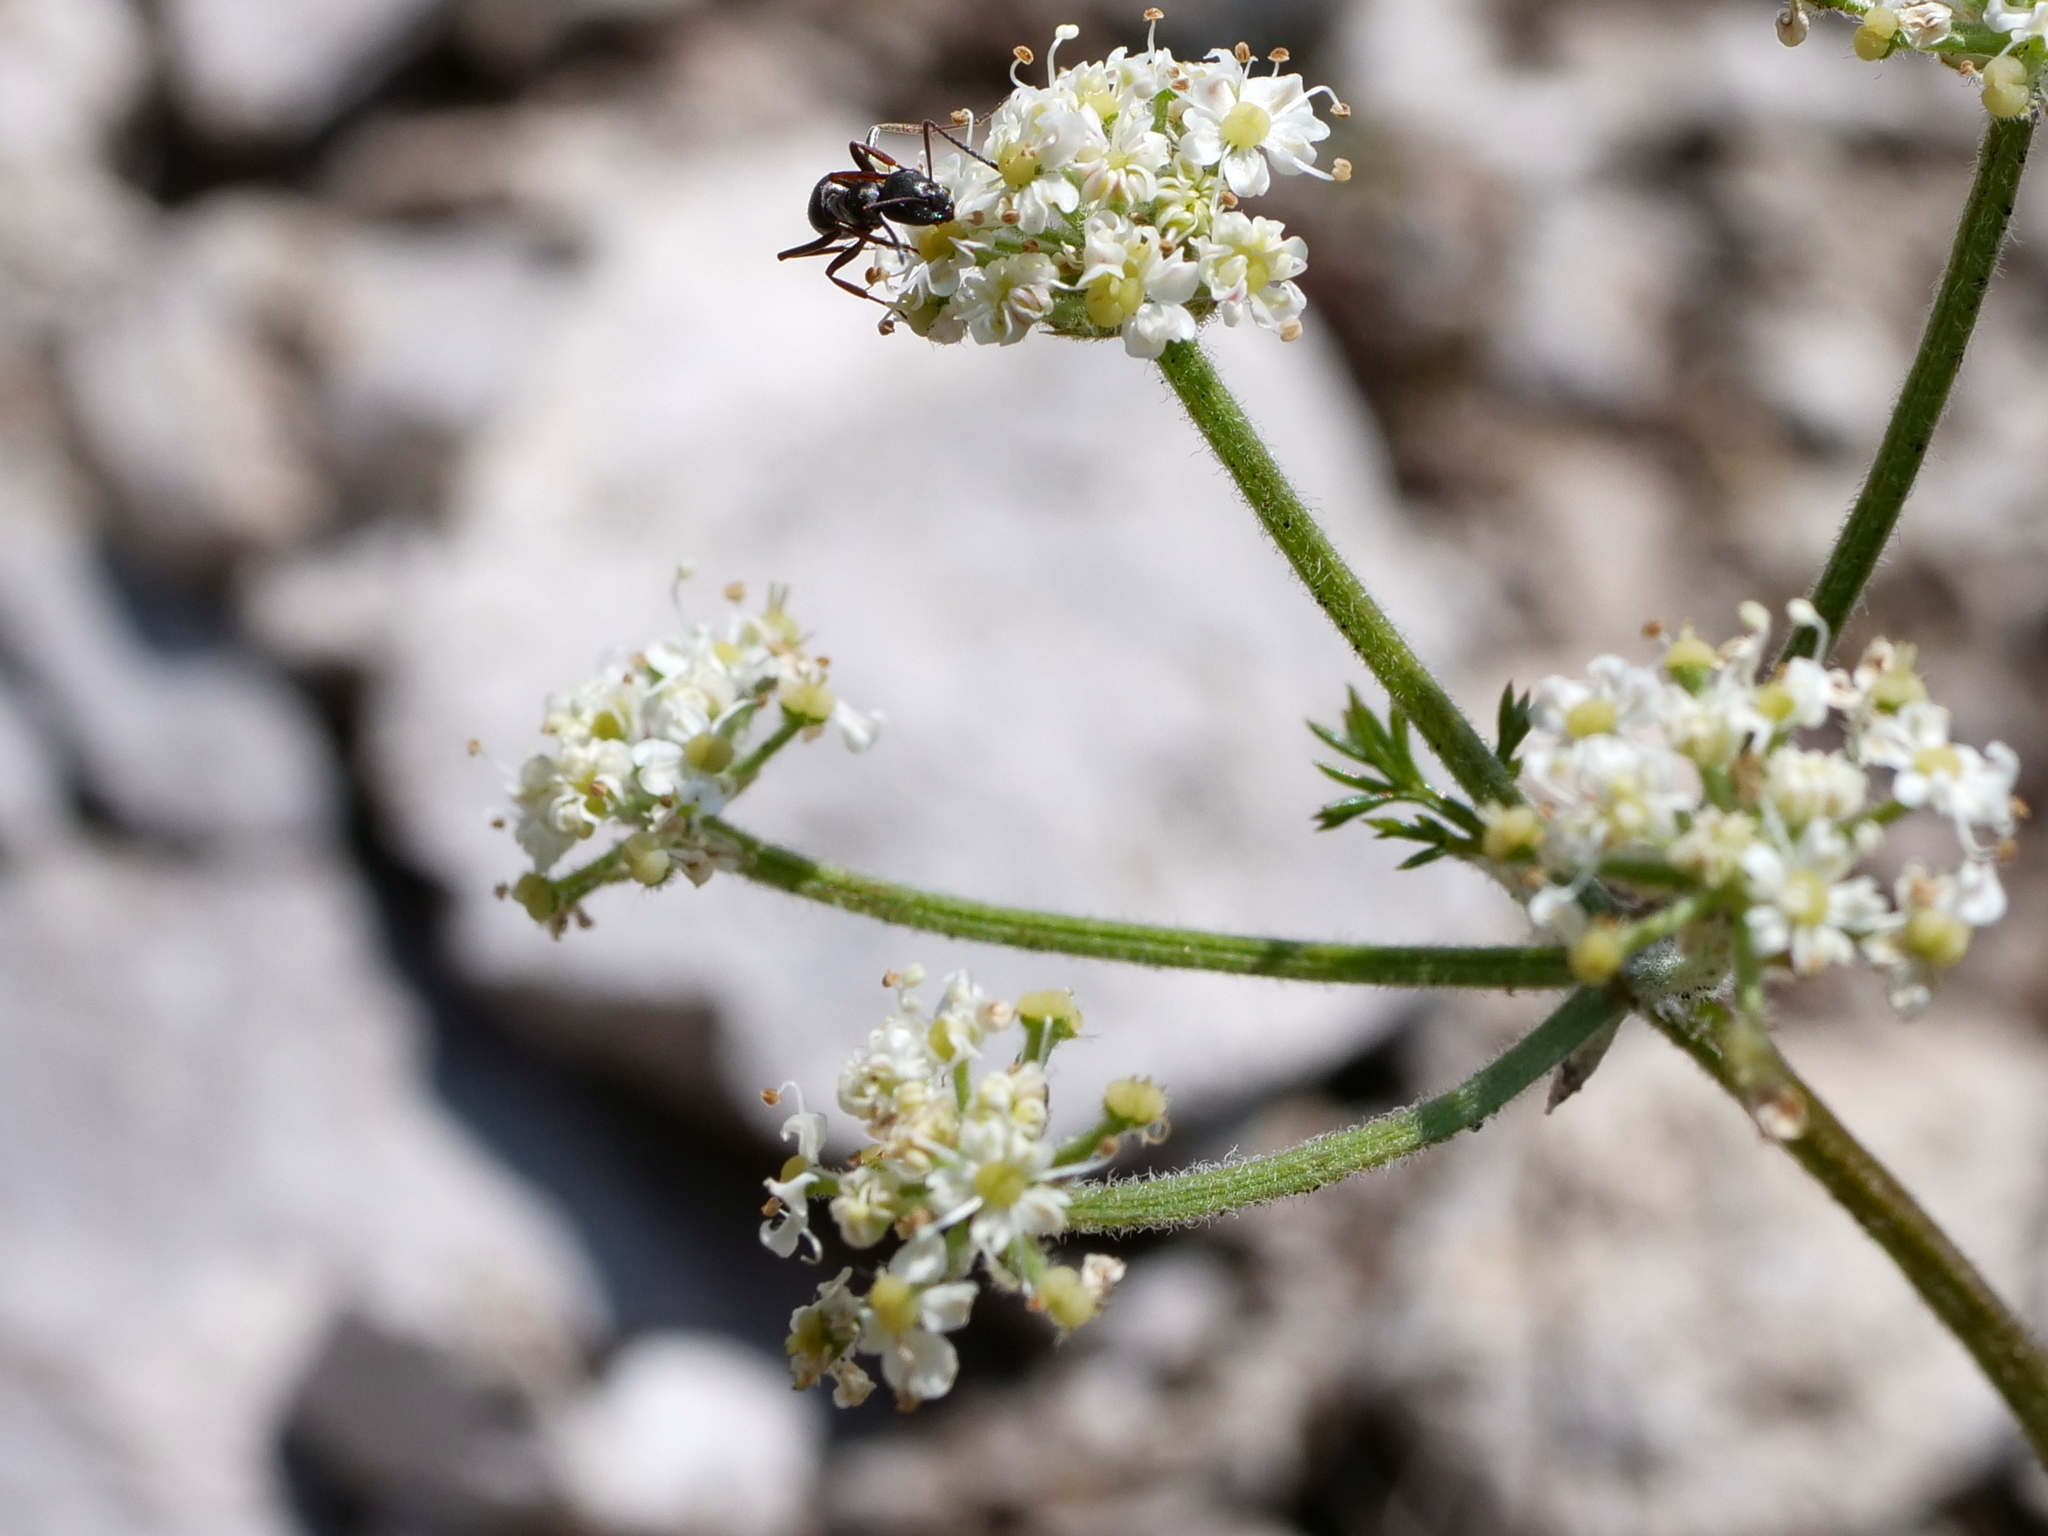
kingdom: Plantae
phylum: Tracheophyta
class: Magnoliopsida
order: Apiales
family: Apiaceae
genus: Athamanta
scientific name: Athamanta cretensis
